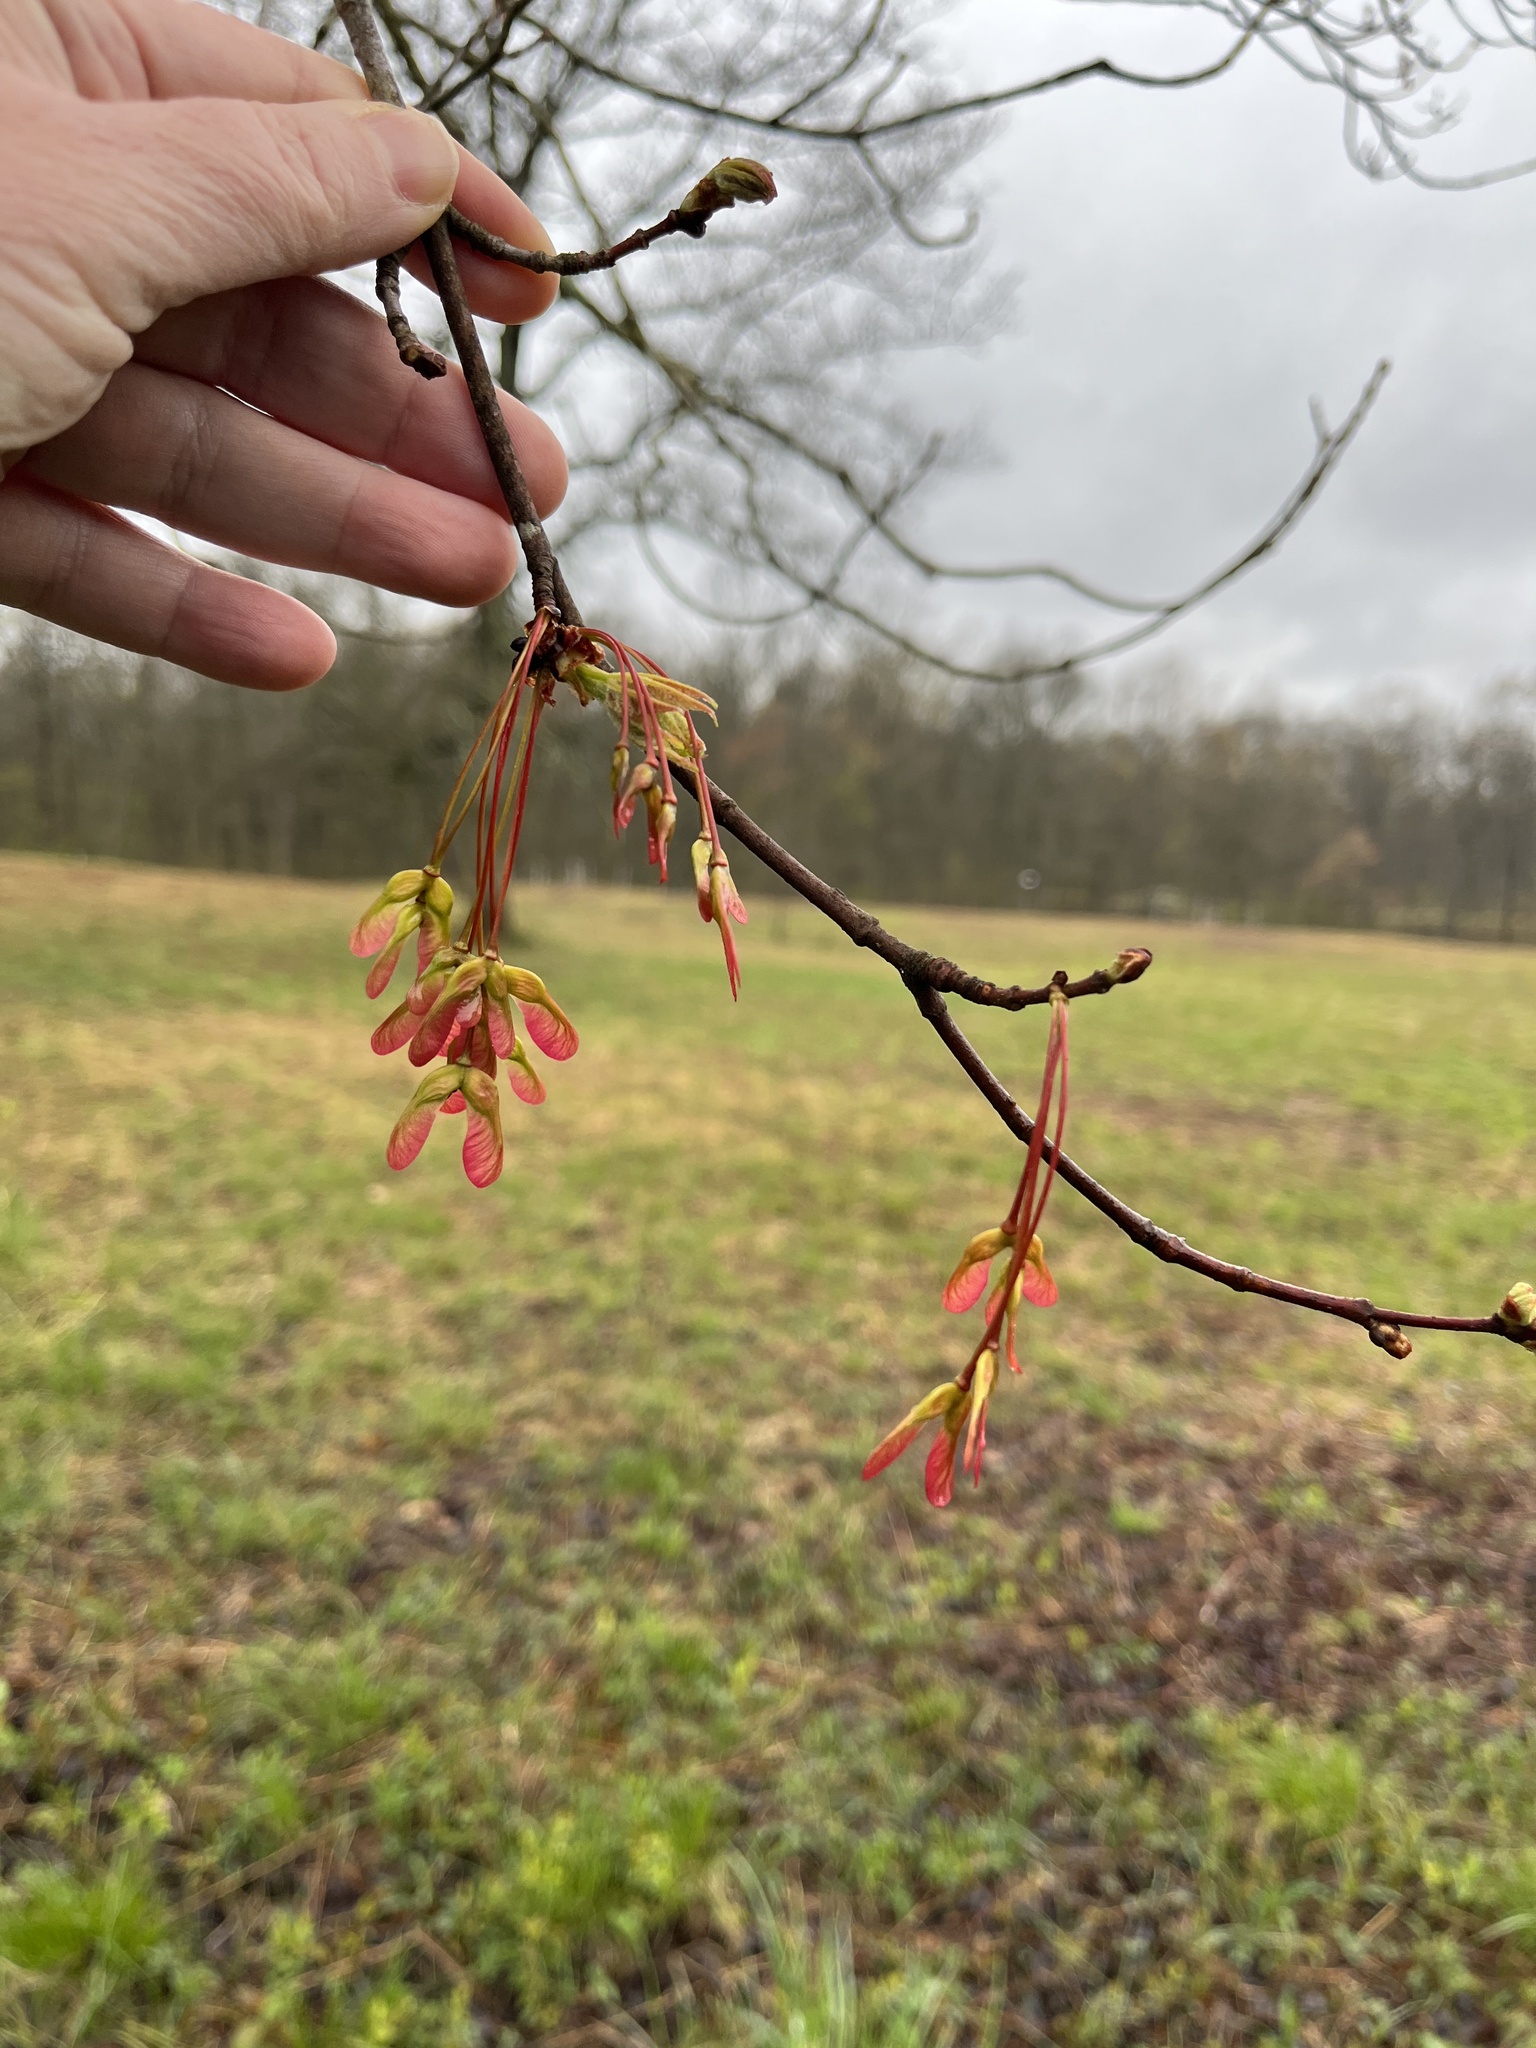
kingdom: Plantae
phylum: Tracheophyta
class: Magnoliopsida
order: Sapindales
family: Sapindaceae
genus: Acer
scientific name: Acer rubrum
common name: Red maple
